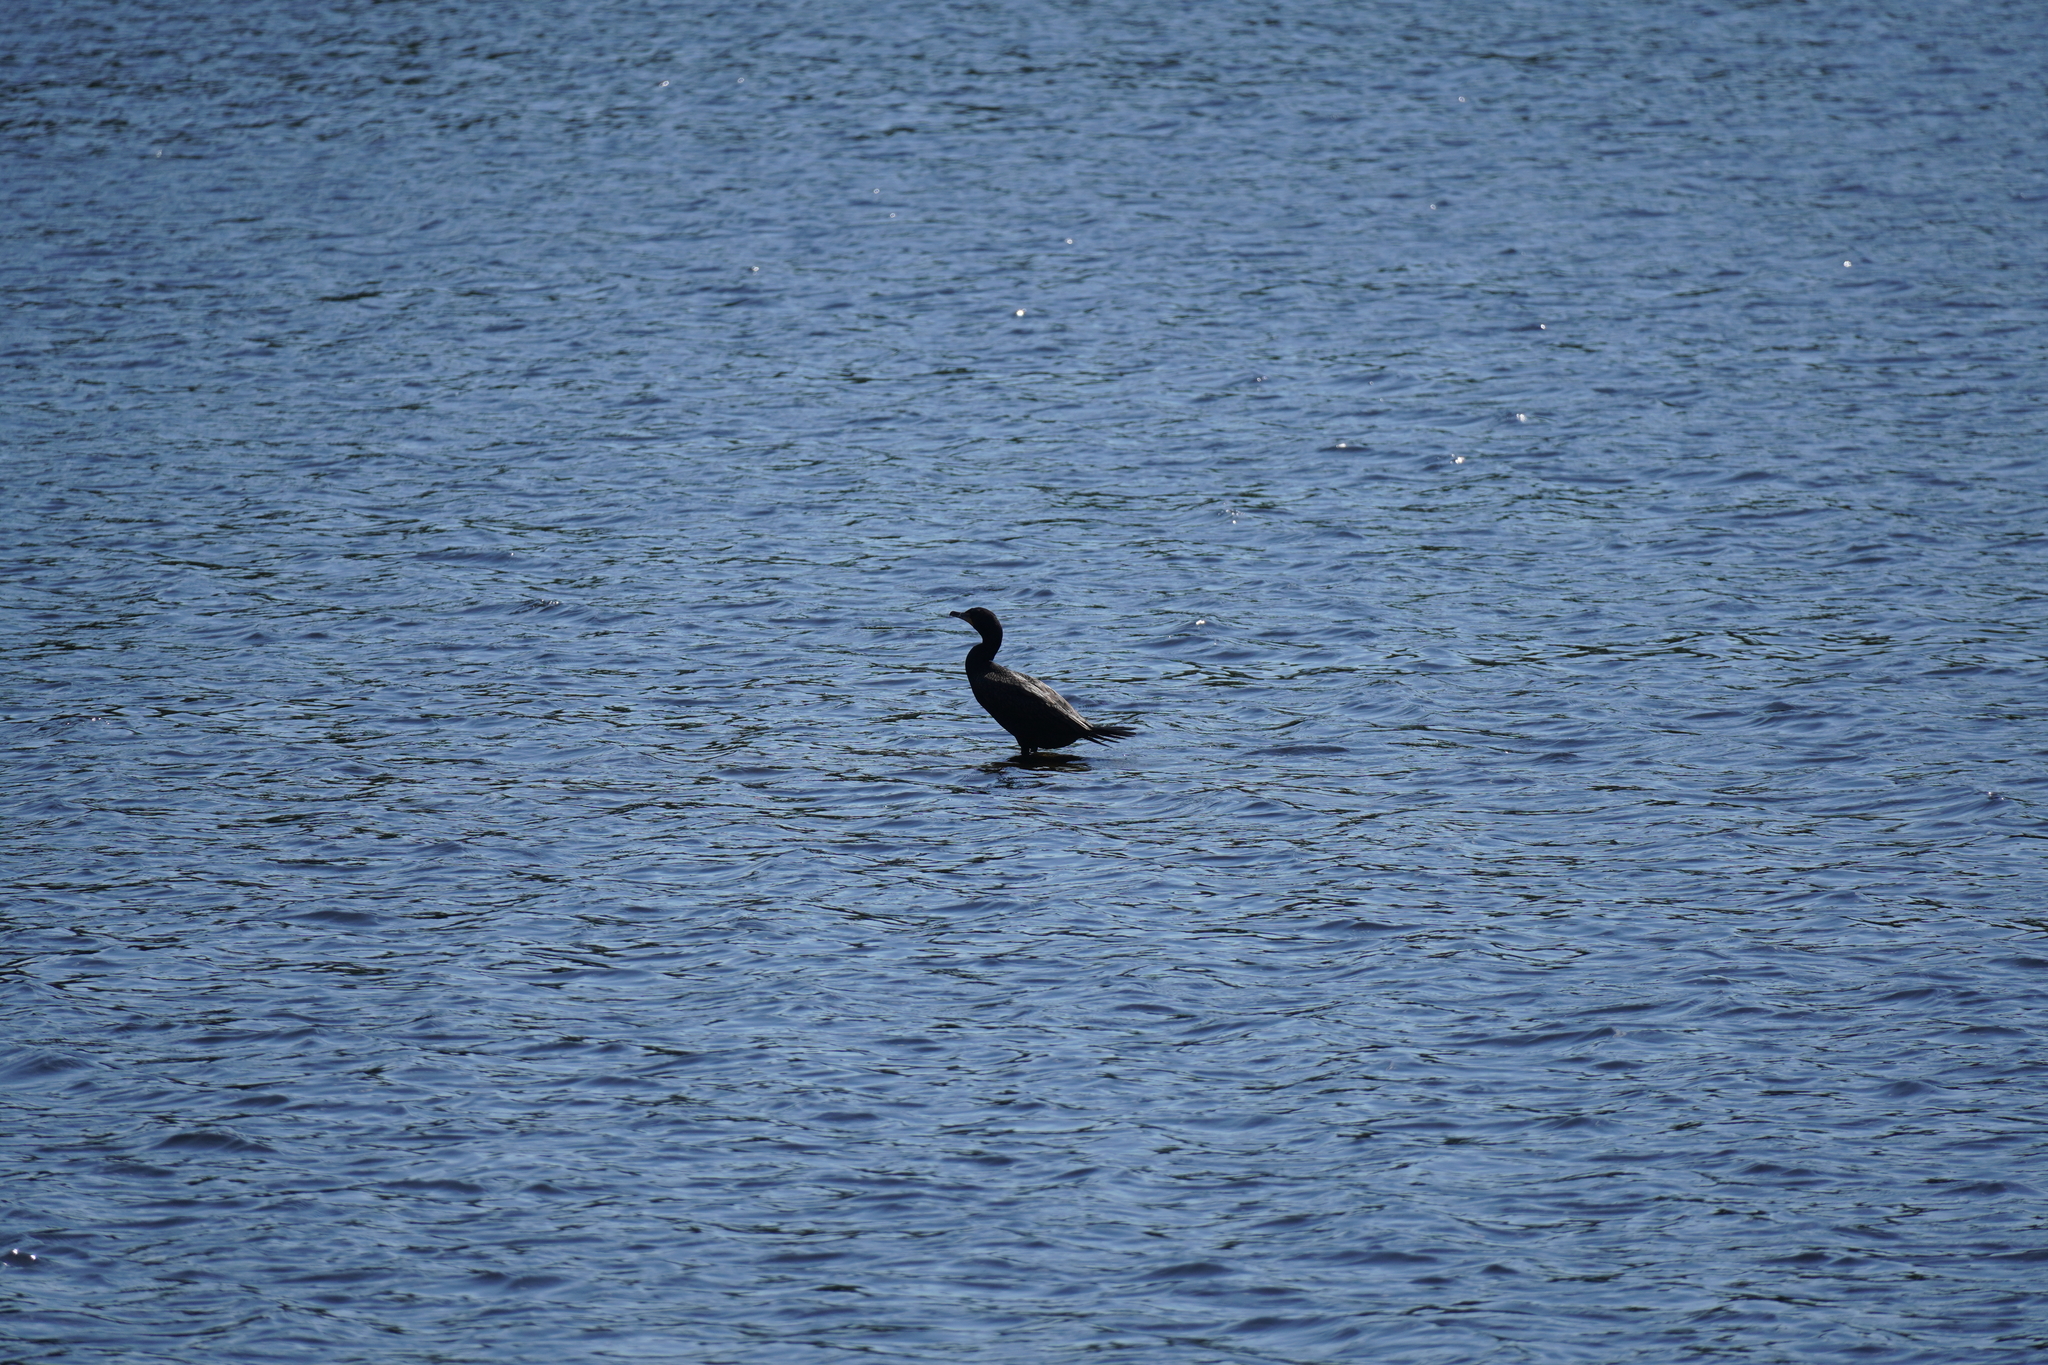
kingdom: Animalia
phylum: Chordata
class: Aves
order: Suliformes
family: Phalacrocoracidae
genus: Phalacrocorax
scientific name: Phalacrocorax auritus
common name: Double-crested cormorant
